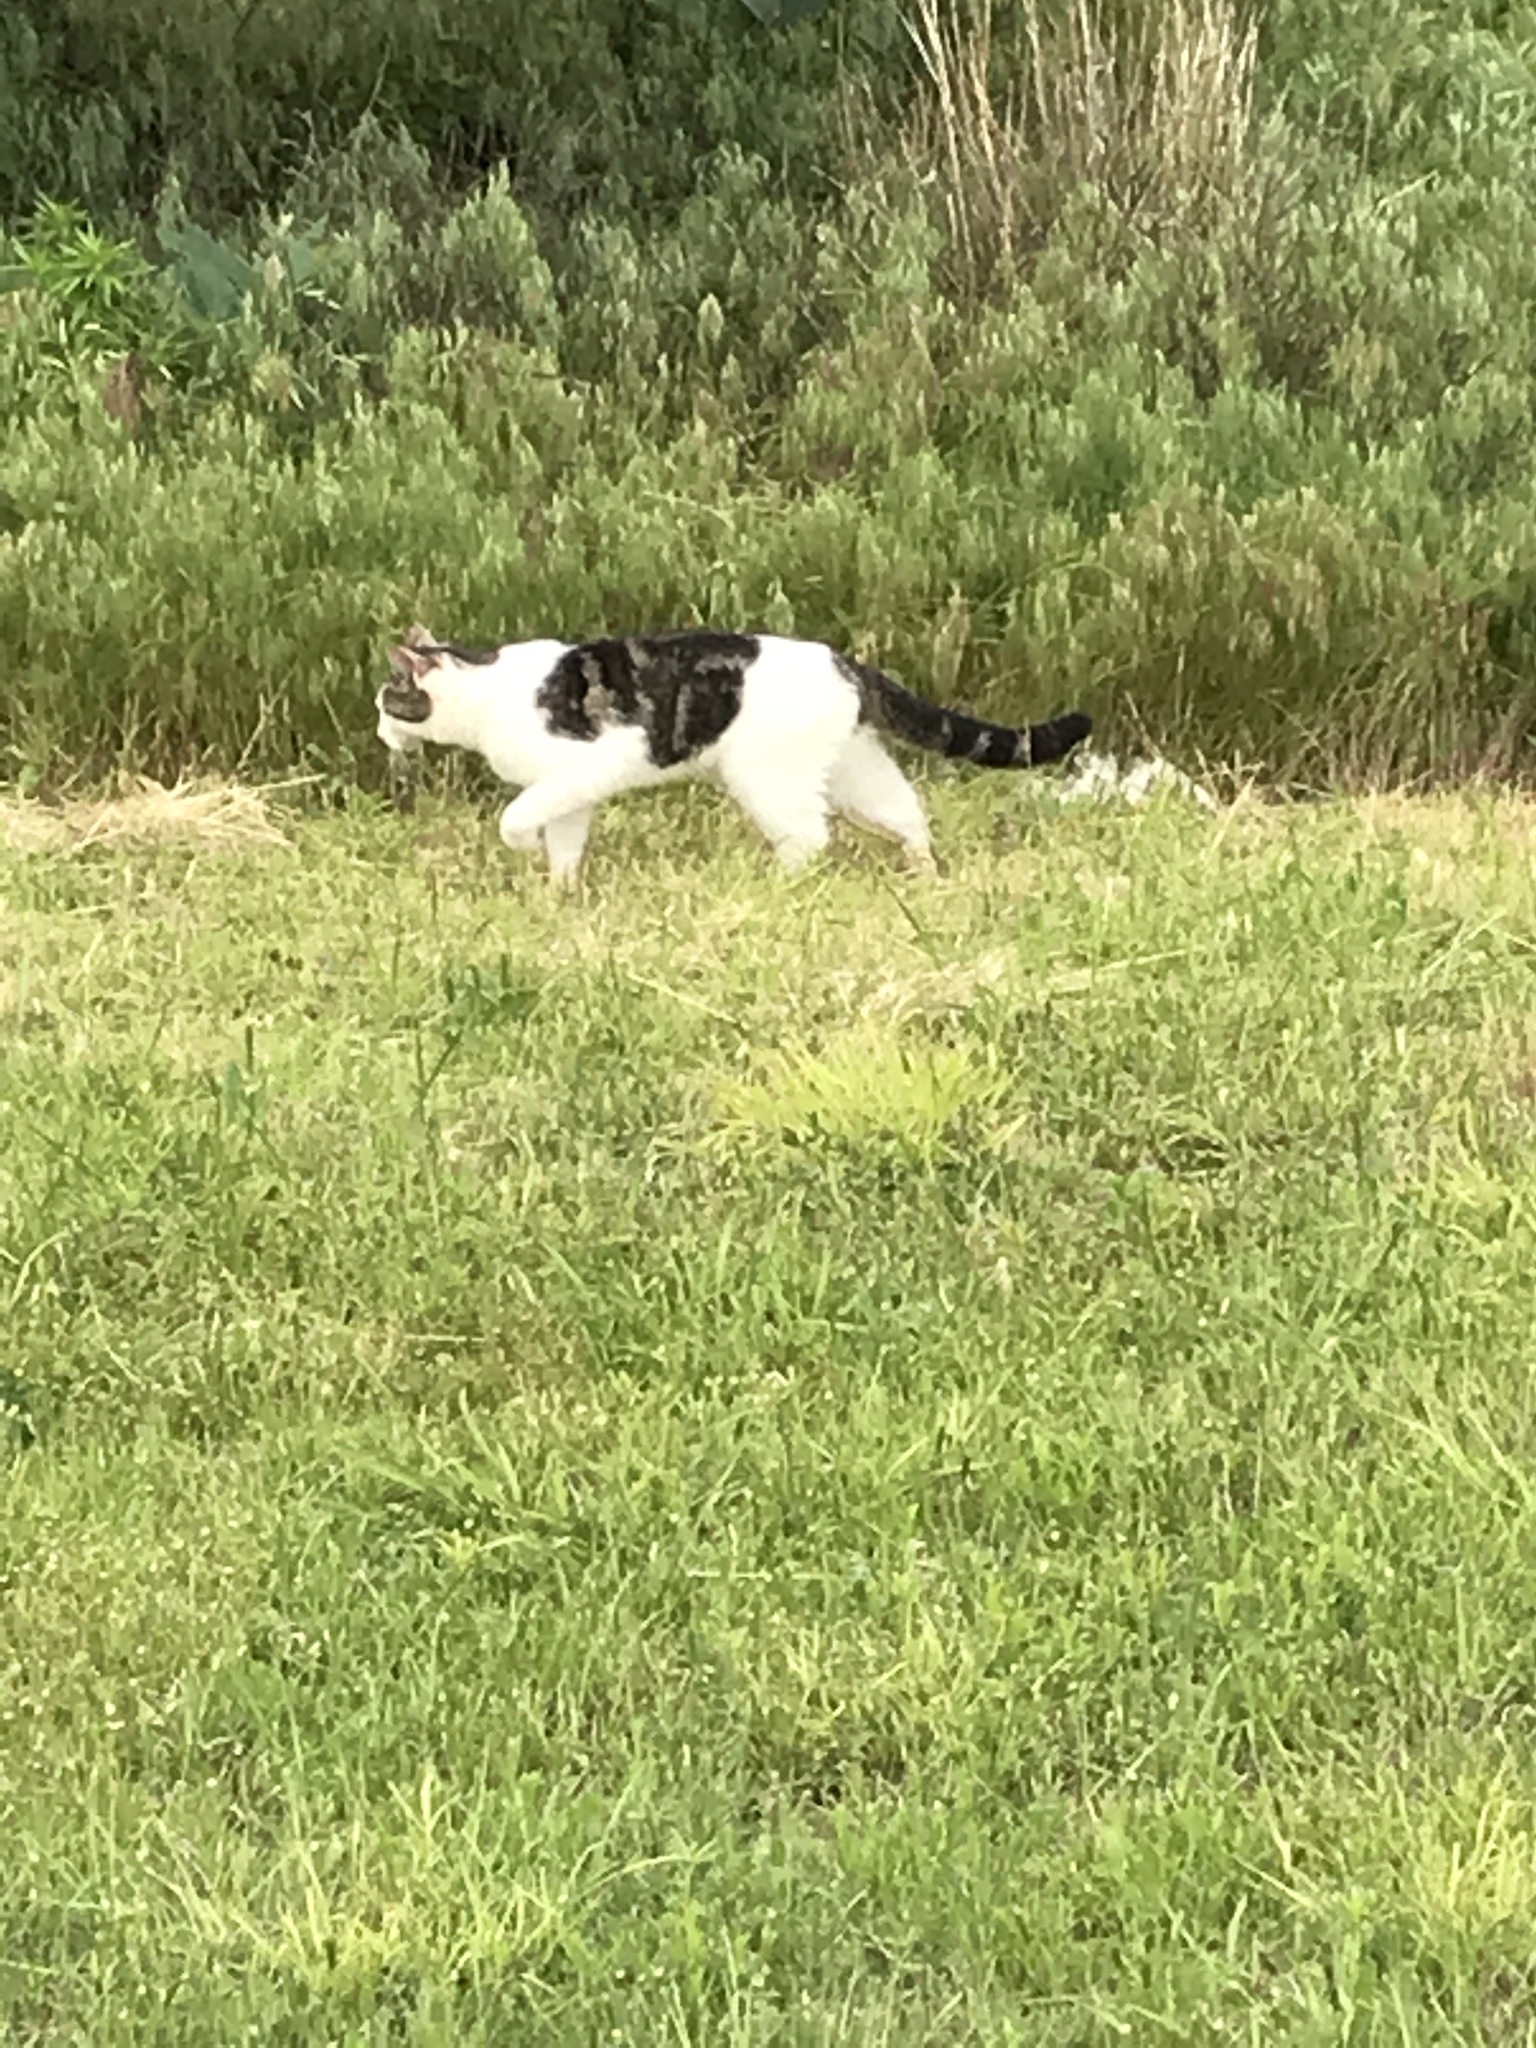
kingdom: Animalia
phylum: Chordata
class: Mammalia
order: Carnivora
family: Felidae
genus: Felis
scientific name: Felis catus
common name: Domestic cat
